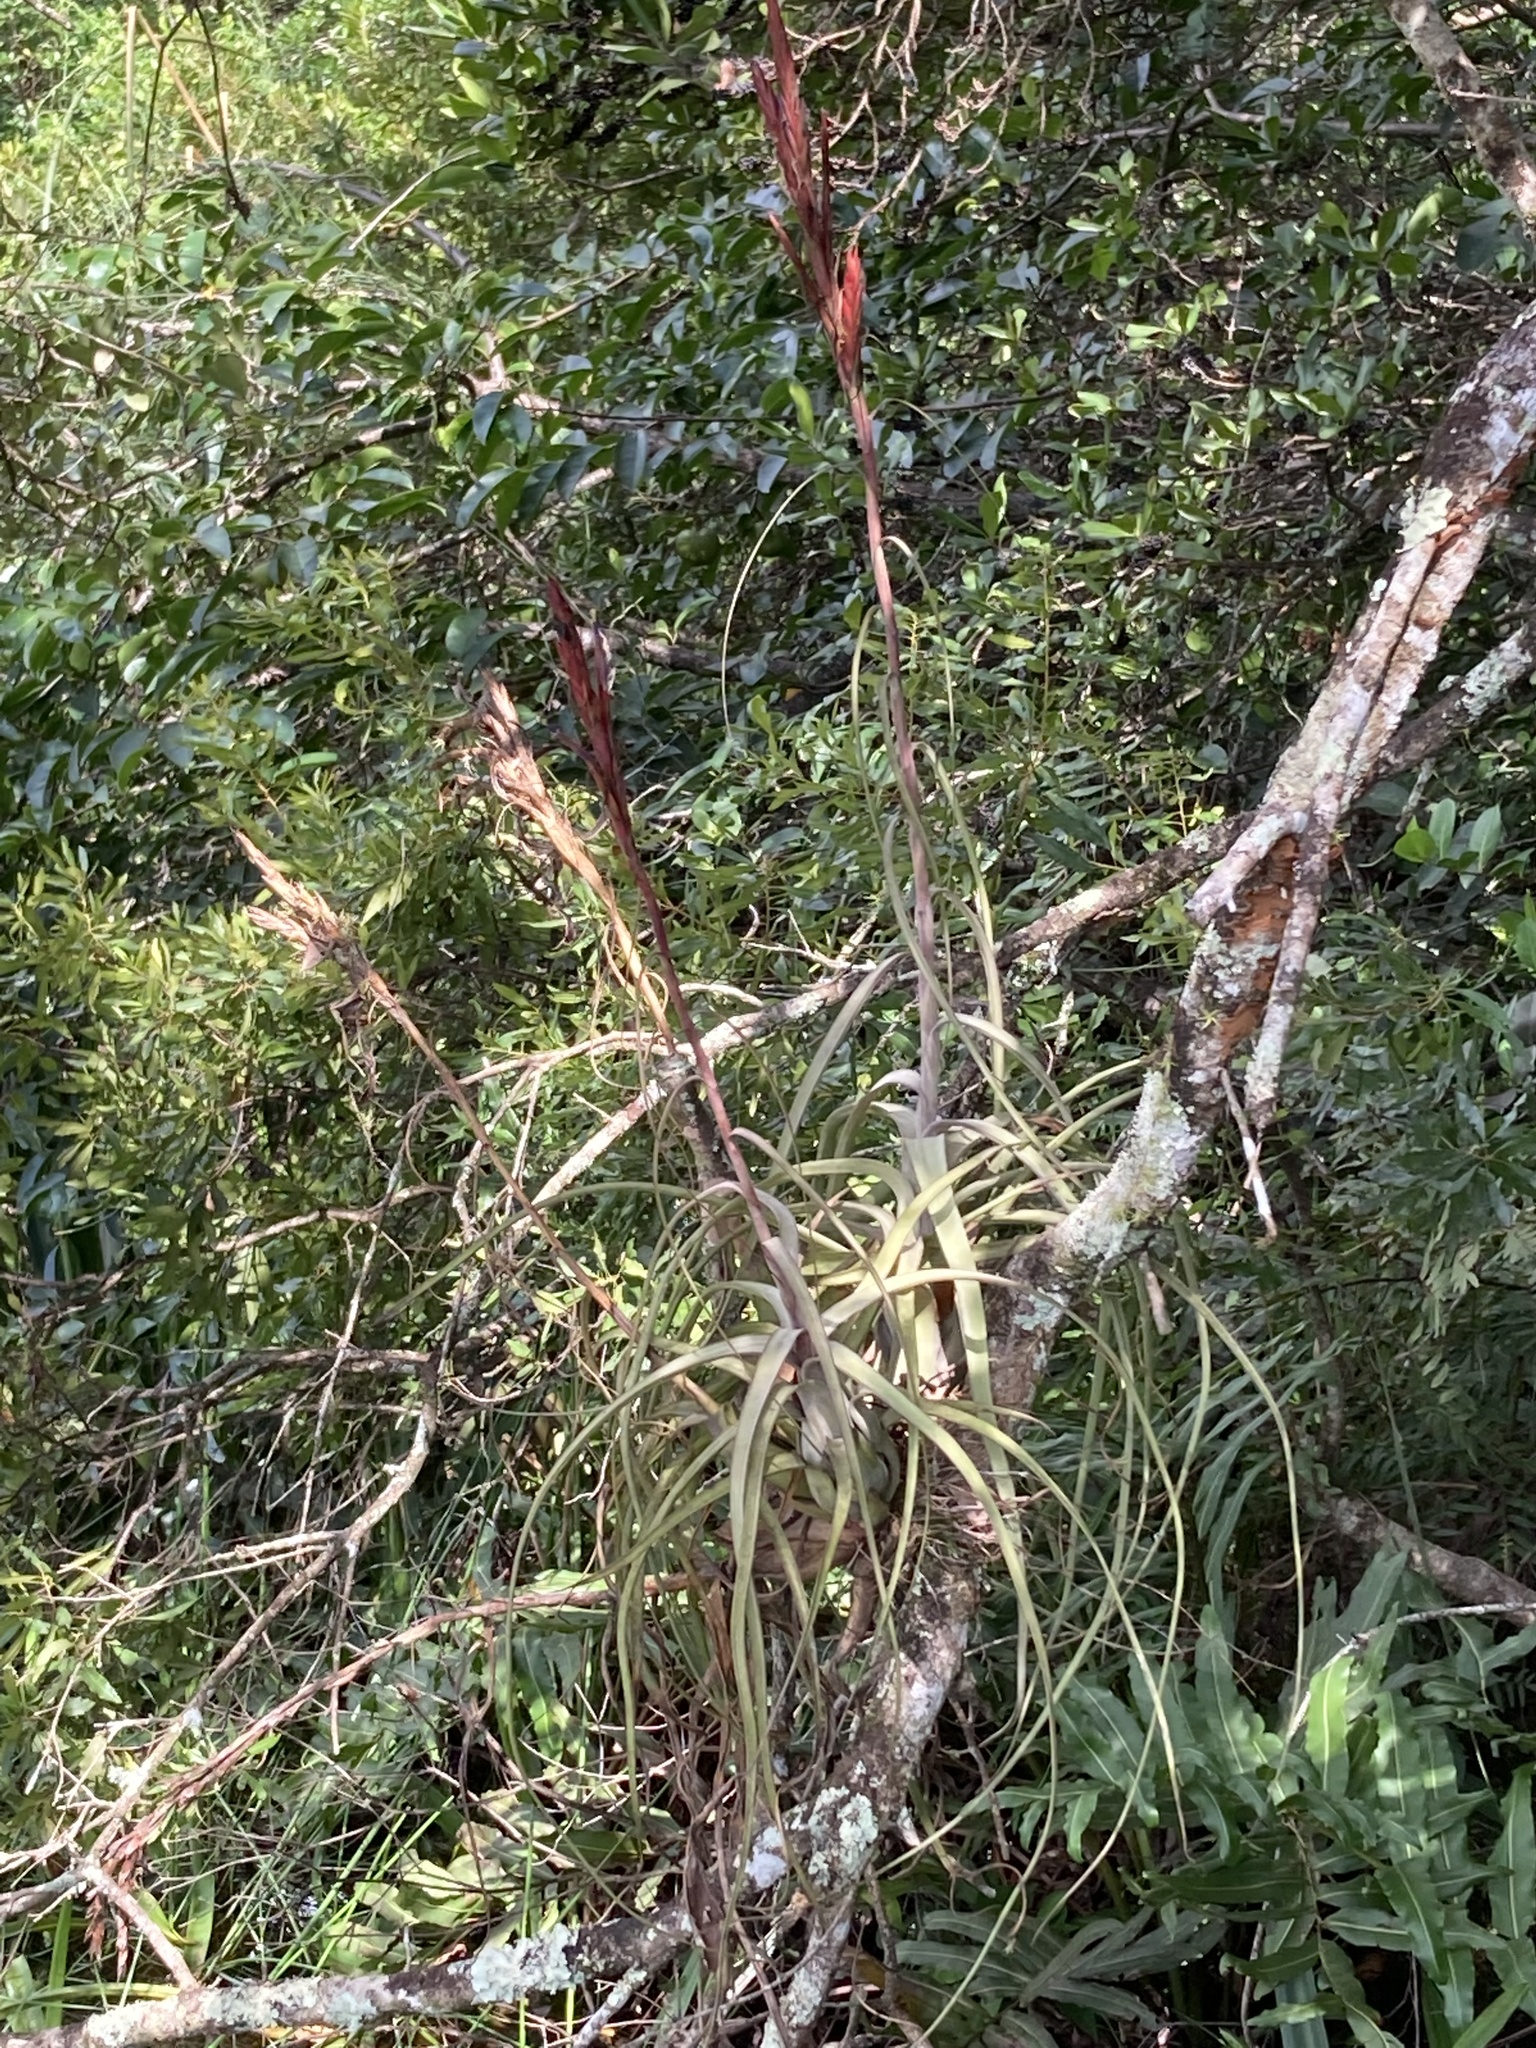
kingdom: Plantae
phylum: Tracheophyta
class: Liliopsida
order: Poales
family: Bromeliaceae
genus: Tillandsia
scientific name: Tillandsia balbisiana
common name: Northern needleleaf
